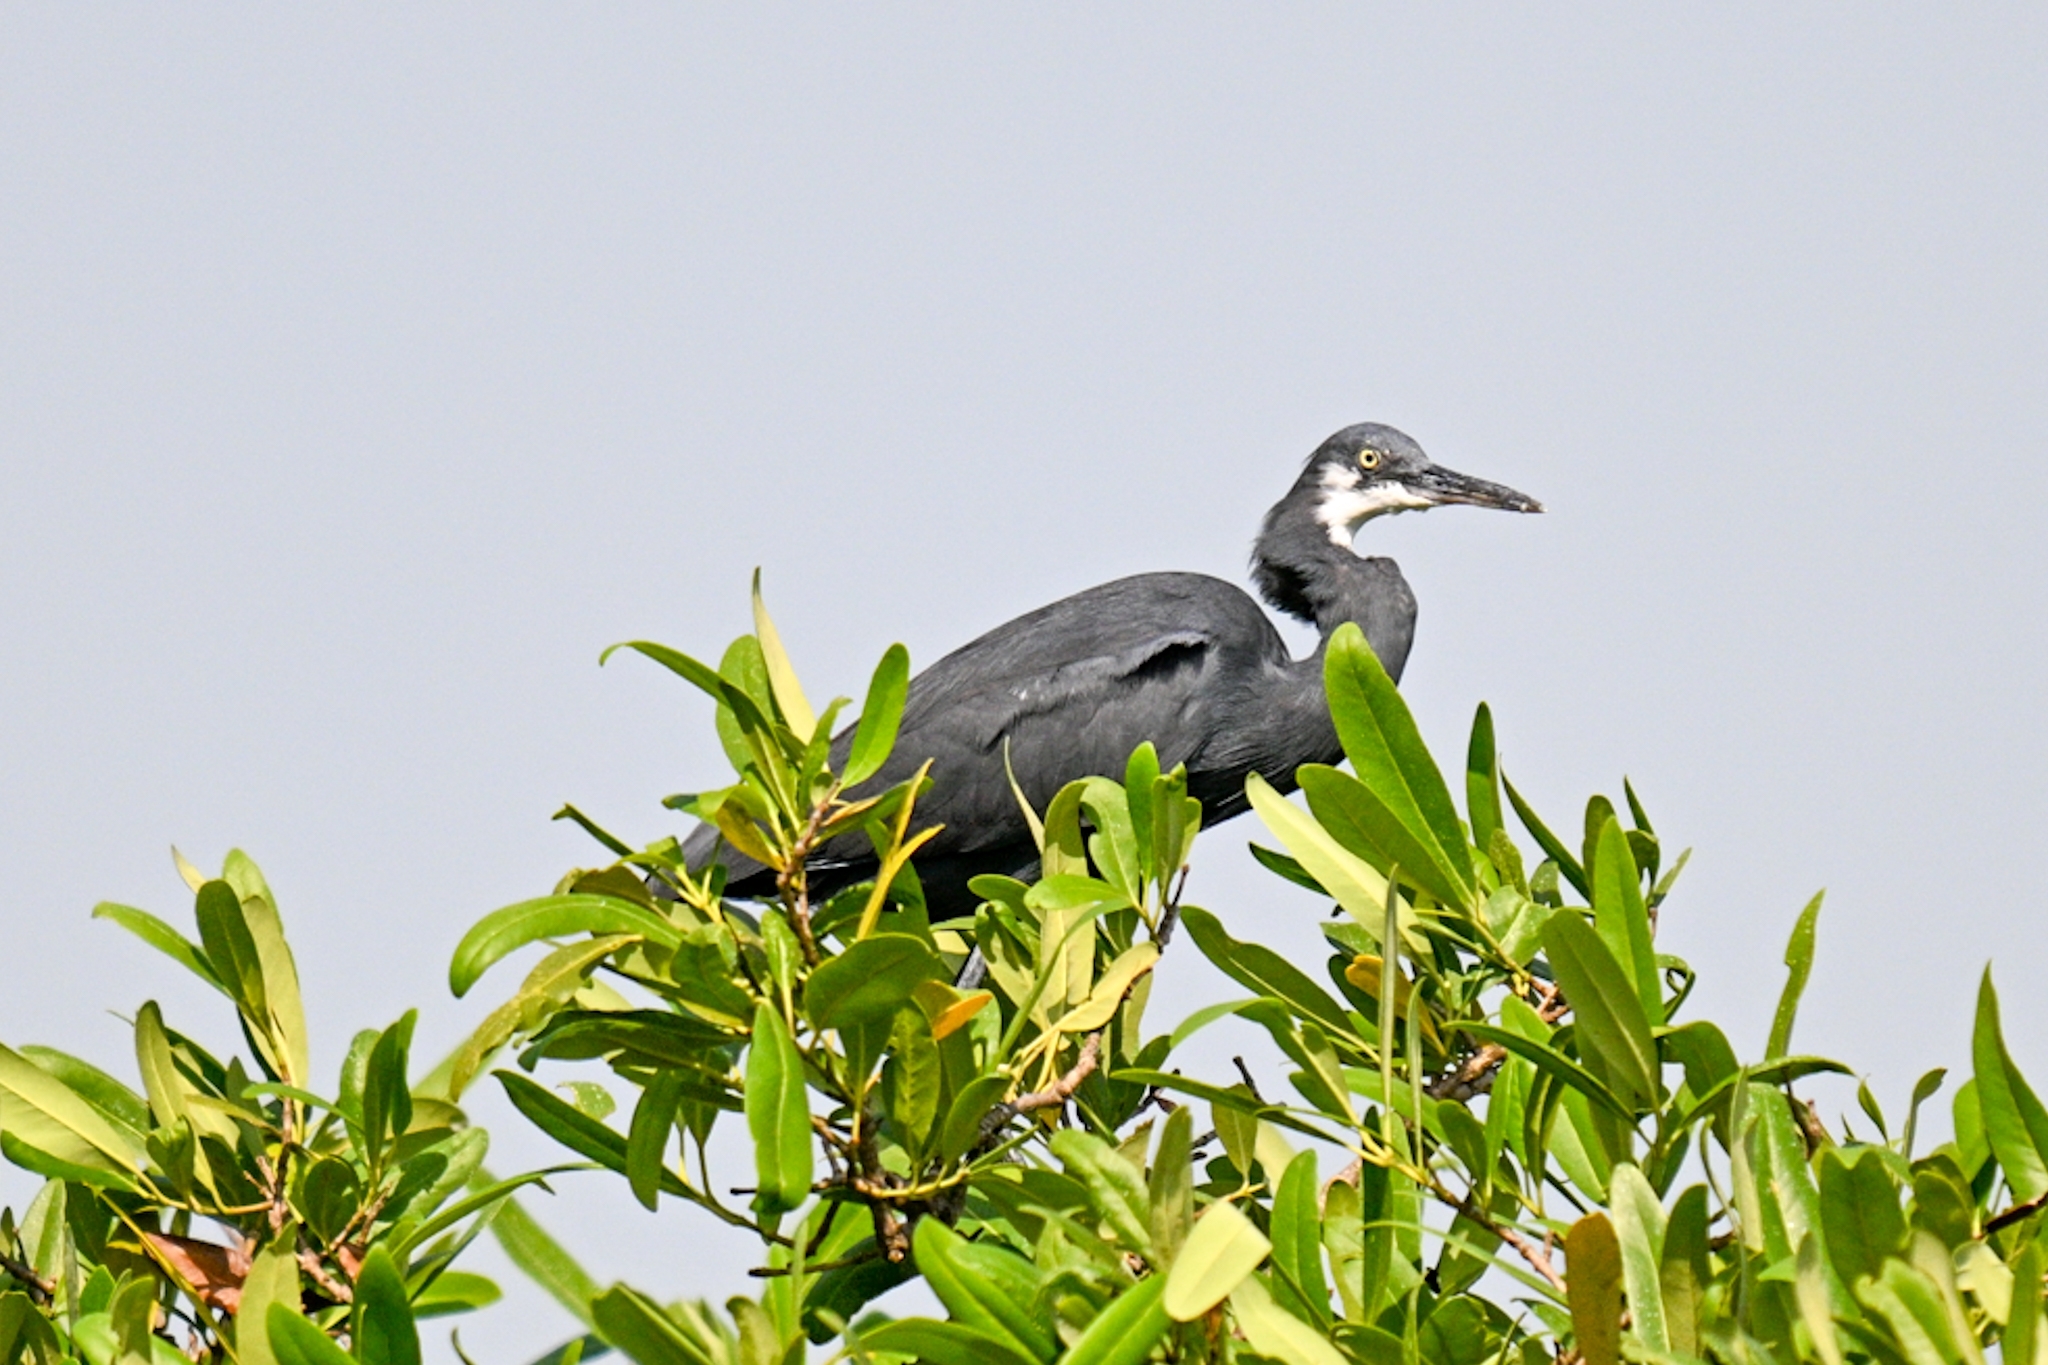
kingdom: Animalia
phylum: Chordata
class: Aves
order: Pelecaniformes
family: Ardeidae
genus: Egretta
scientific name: Egretta gularis
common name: Western reef-heron
